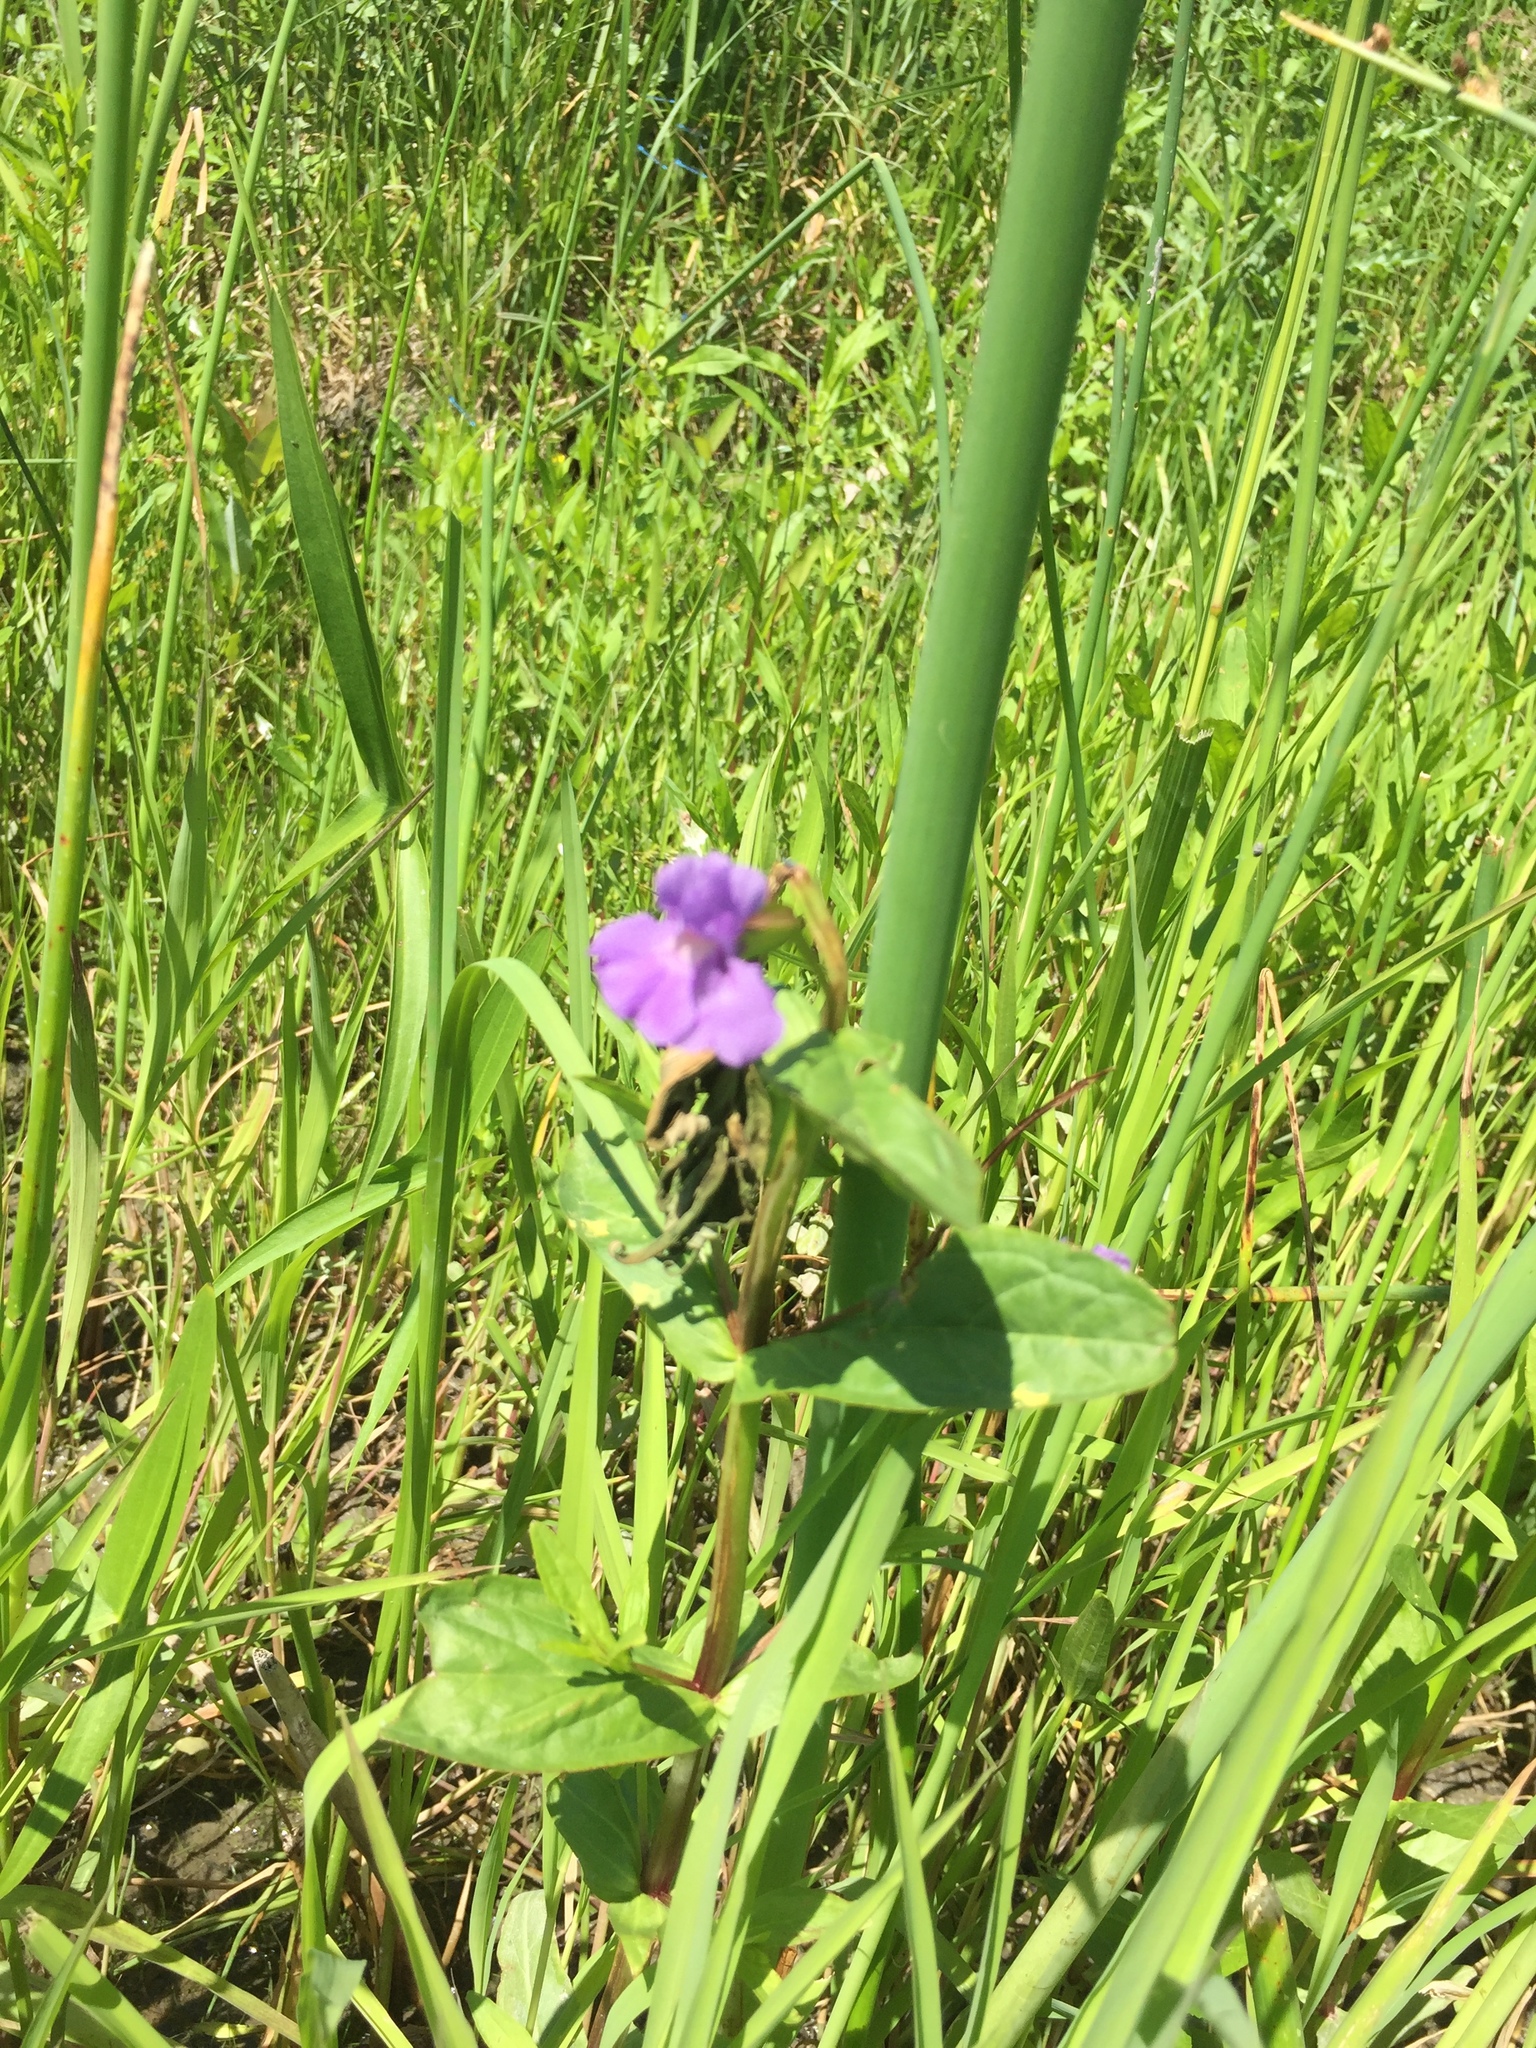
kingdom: Plantae
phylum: Tracheophyta
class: Magnoliopsida
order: Lamiales
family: Phrymaceae
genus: Mimulus
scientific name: Mimulus ringens
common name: Allegheny monkeyflower
